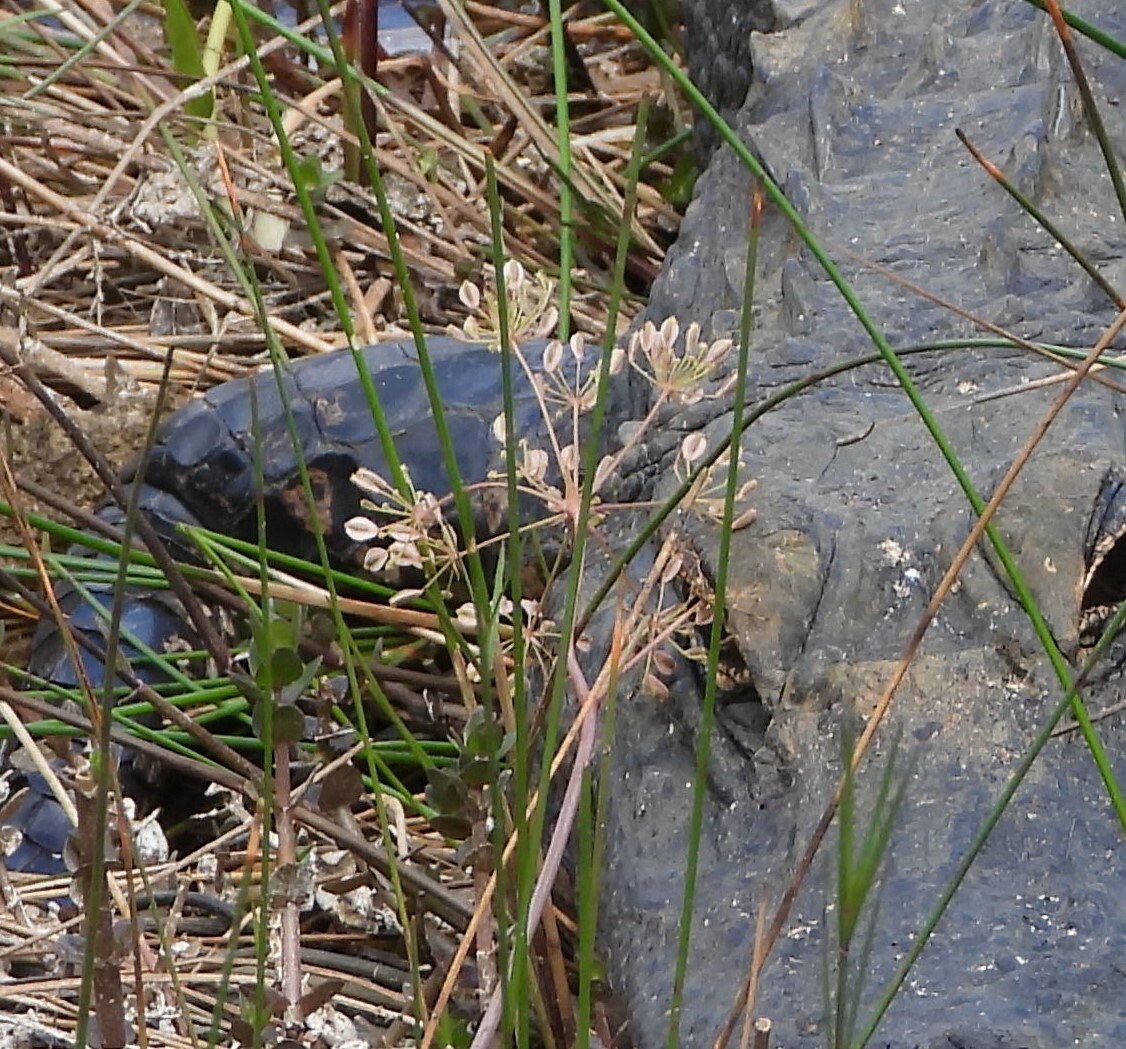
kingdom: Plantae
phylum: Tracheophyta
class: Magnoliopsida
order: Apiales
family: Apiaceae
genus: Tiedemannia
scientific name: Tiedemannia filiformis
